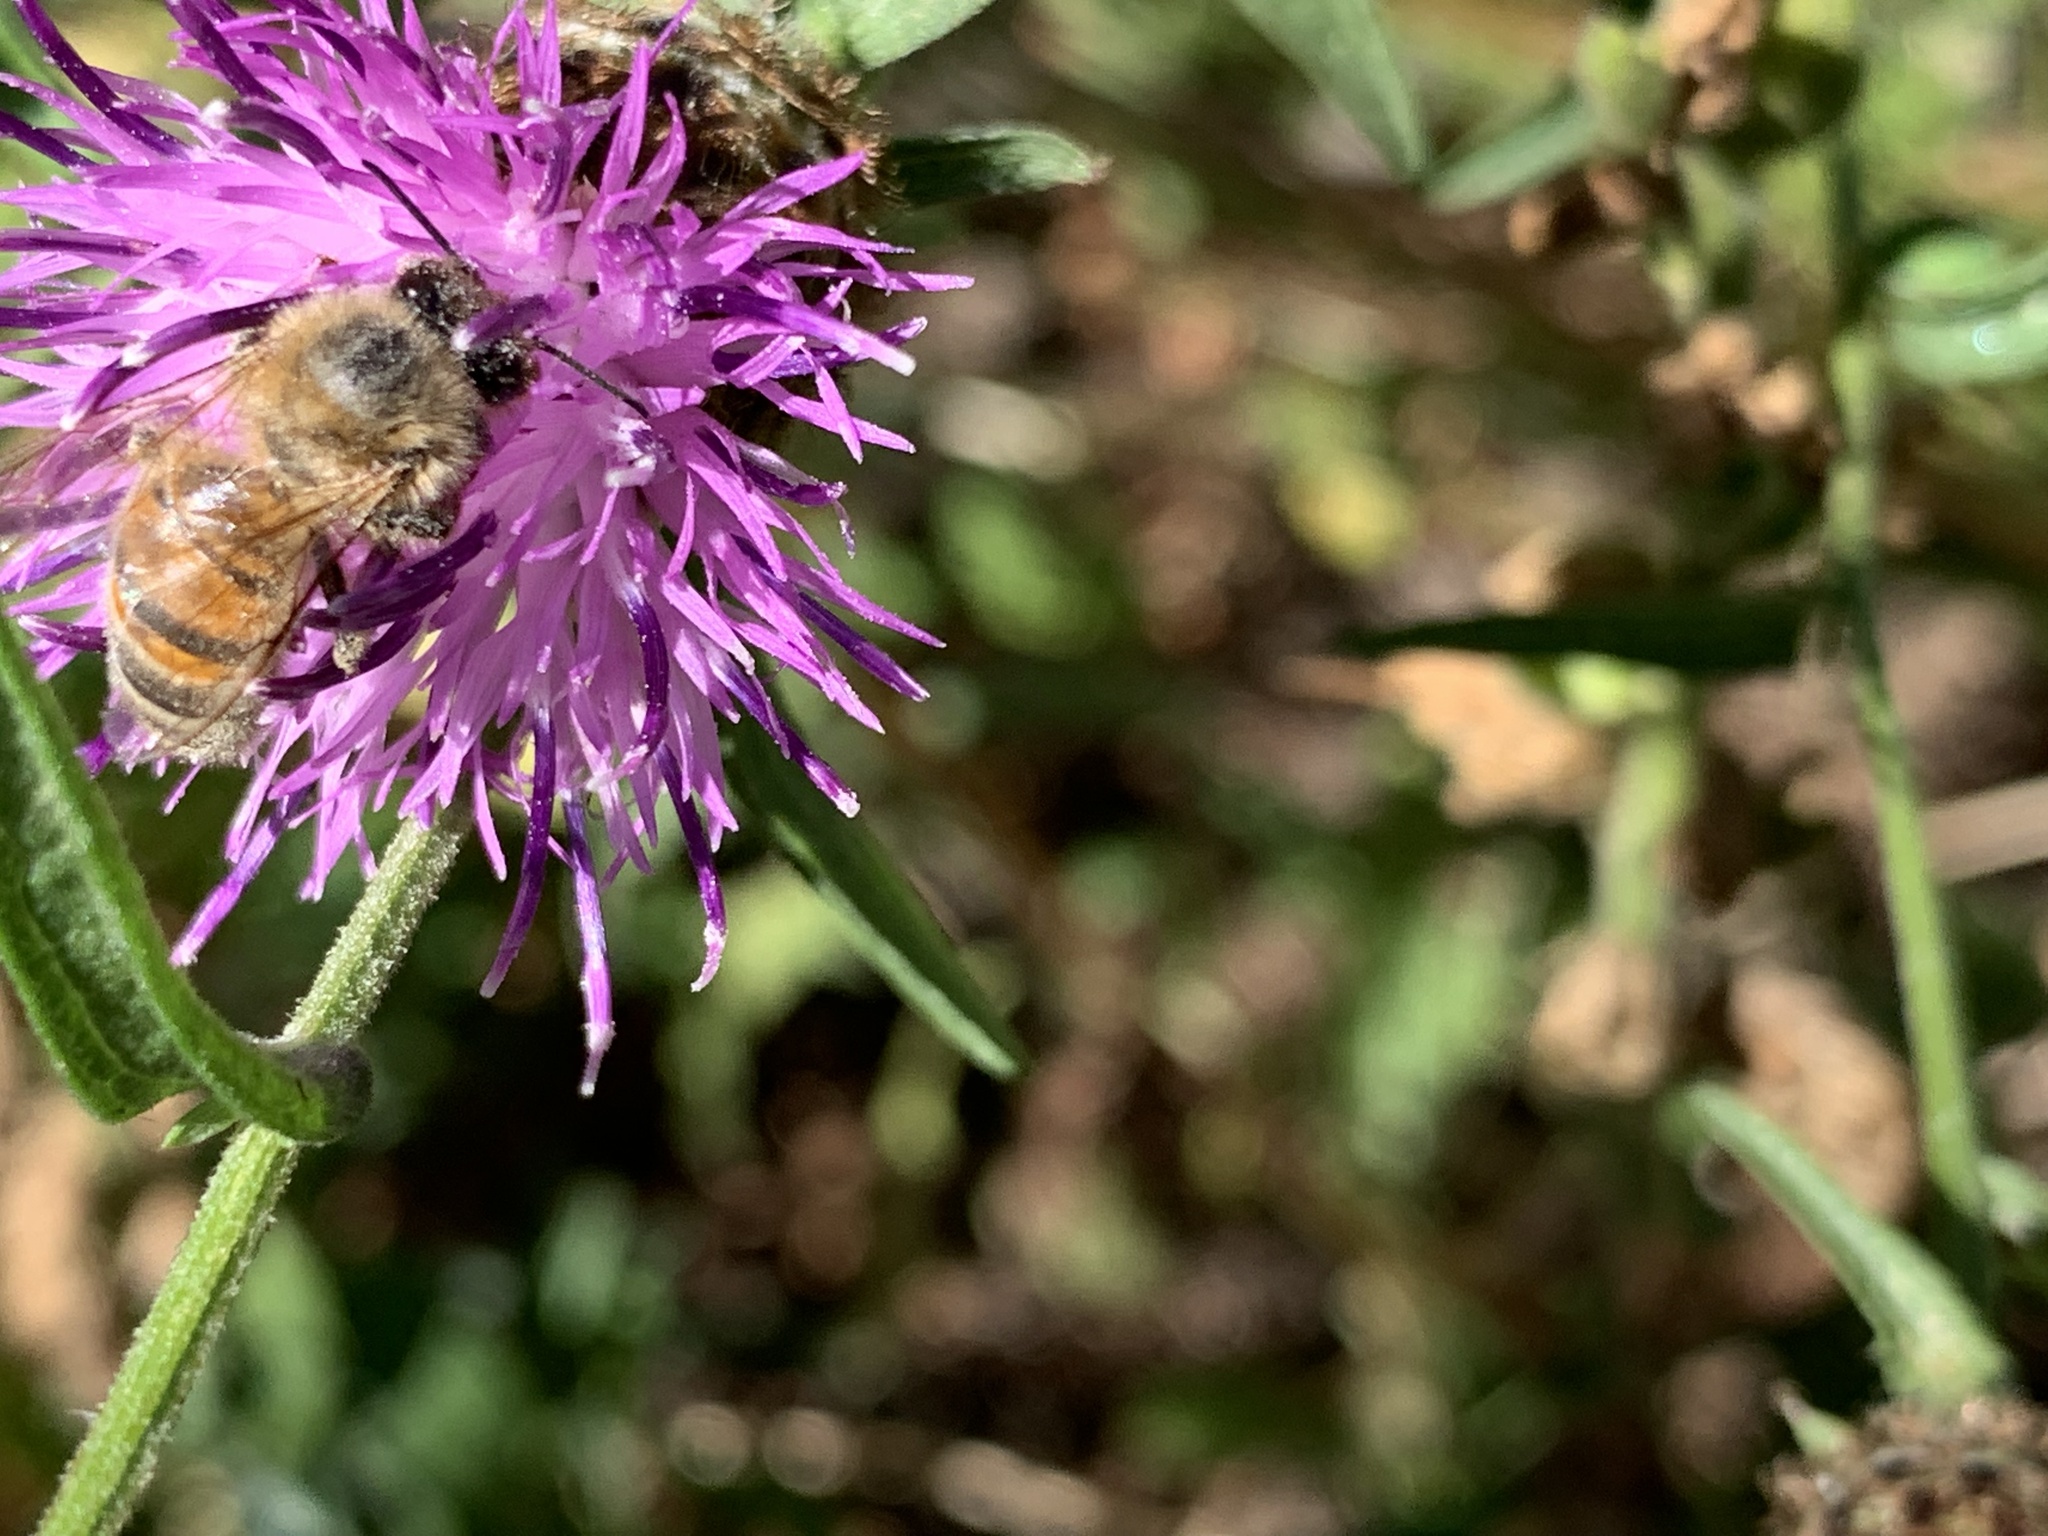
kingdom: Animalia
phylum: Arthropoda
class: Insecta
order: Hymenoptera
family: Apidae
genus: Apis
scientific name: Apis mellifera
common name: Honey bee
